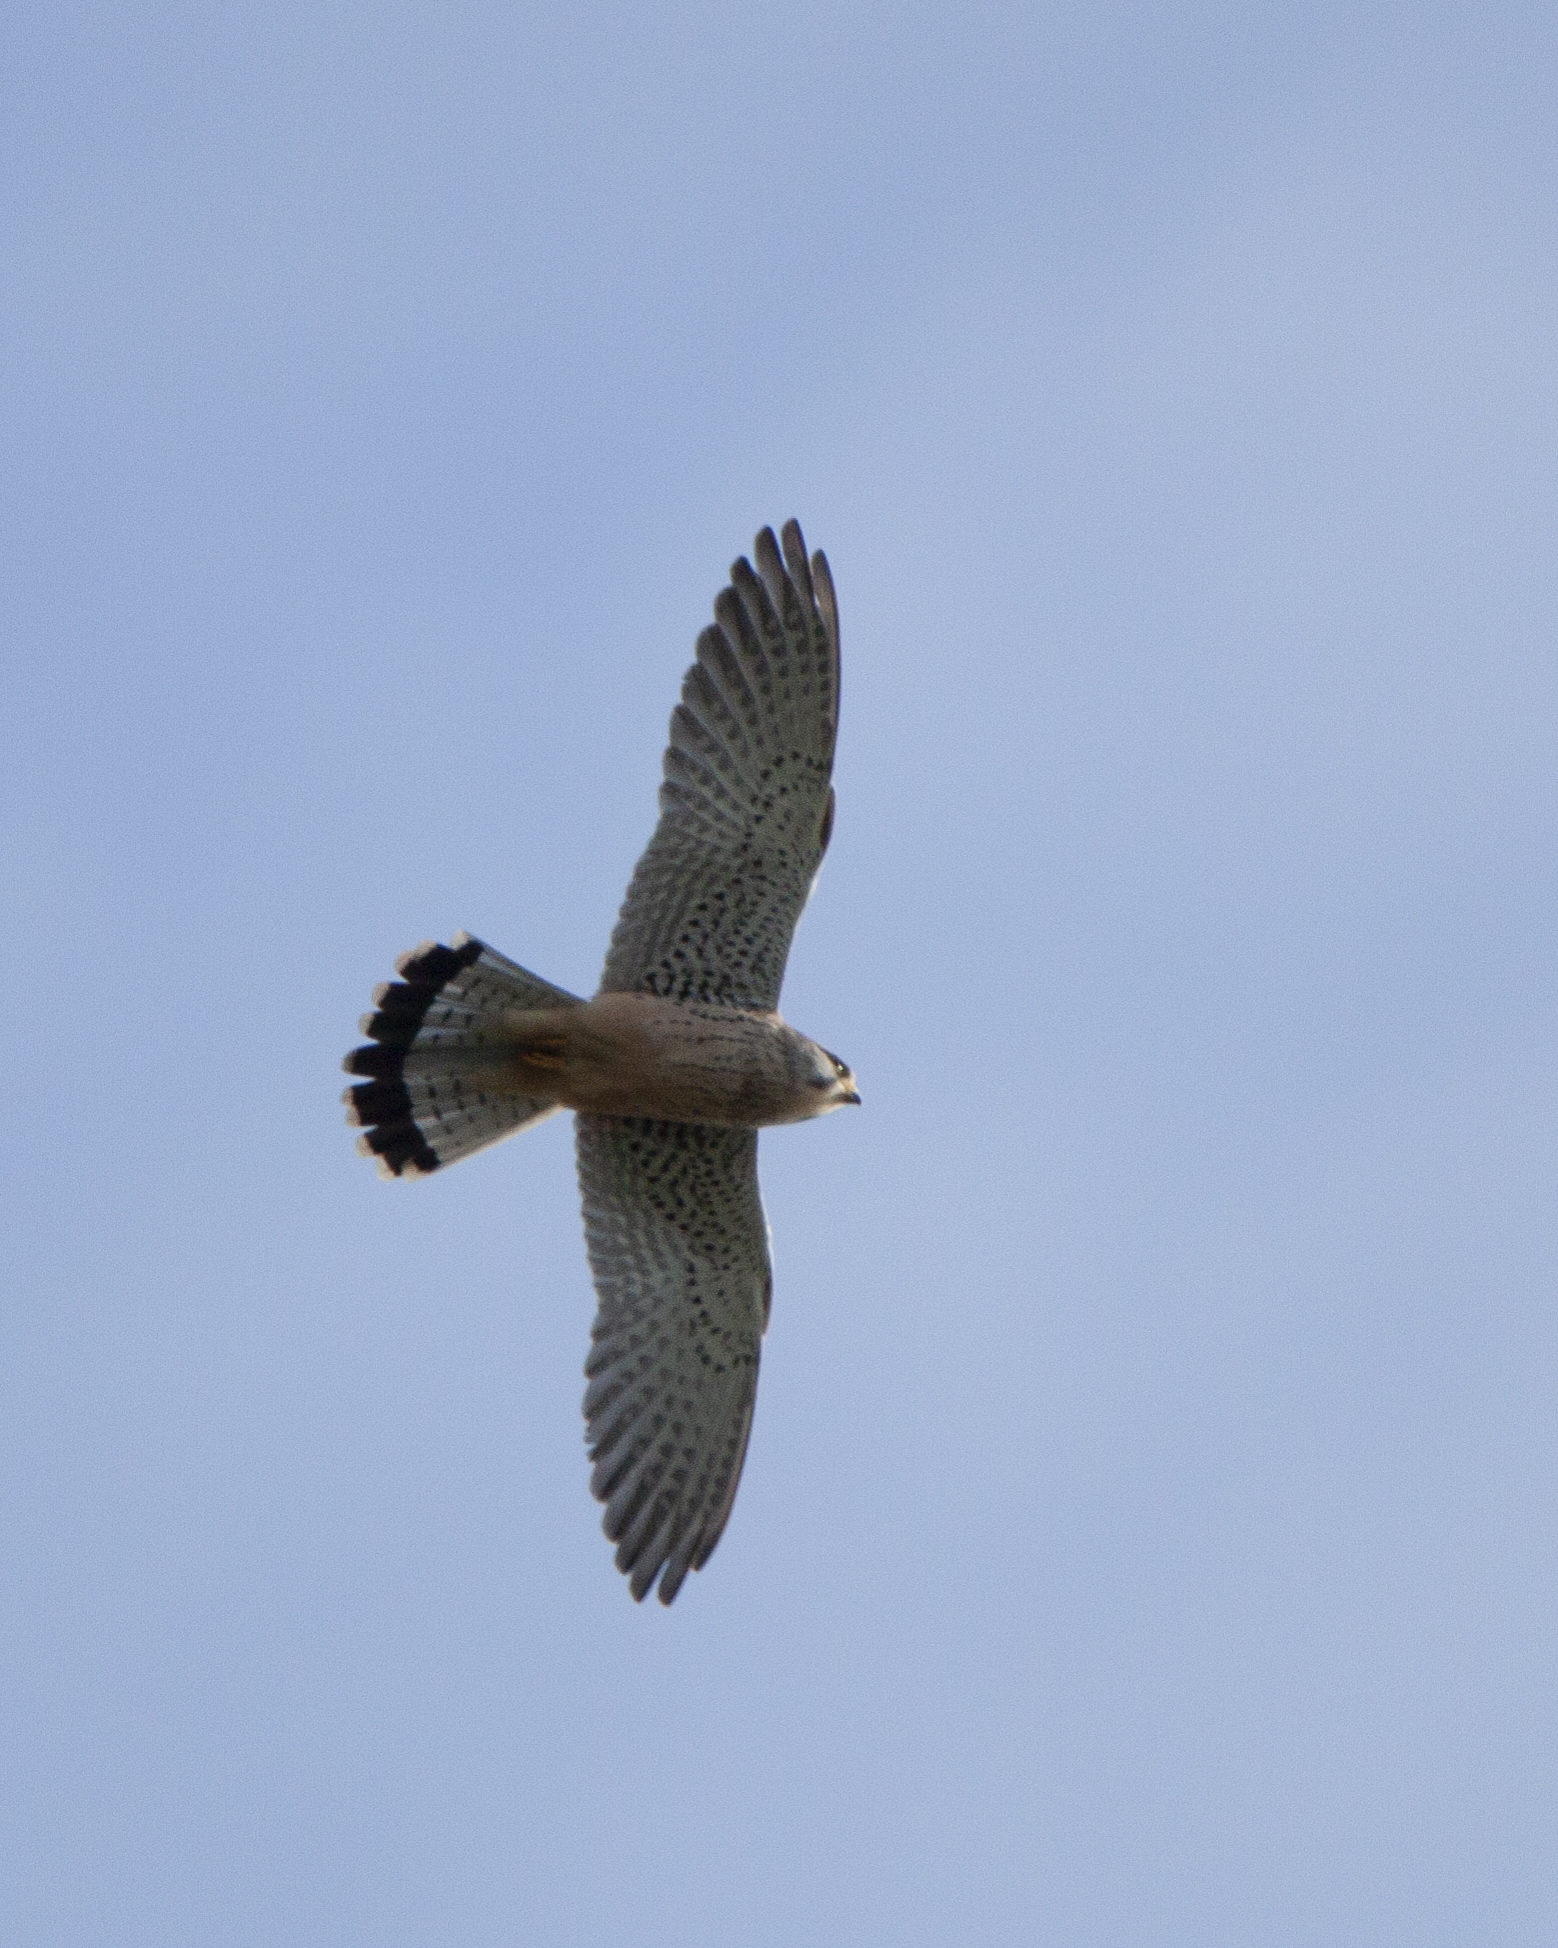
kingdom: Animalia
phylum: Chordata
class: Aves
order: Falconiformes
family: Falconidae
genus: Falco
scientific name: Falco tinnunculus
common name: Common kestrel
